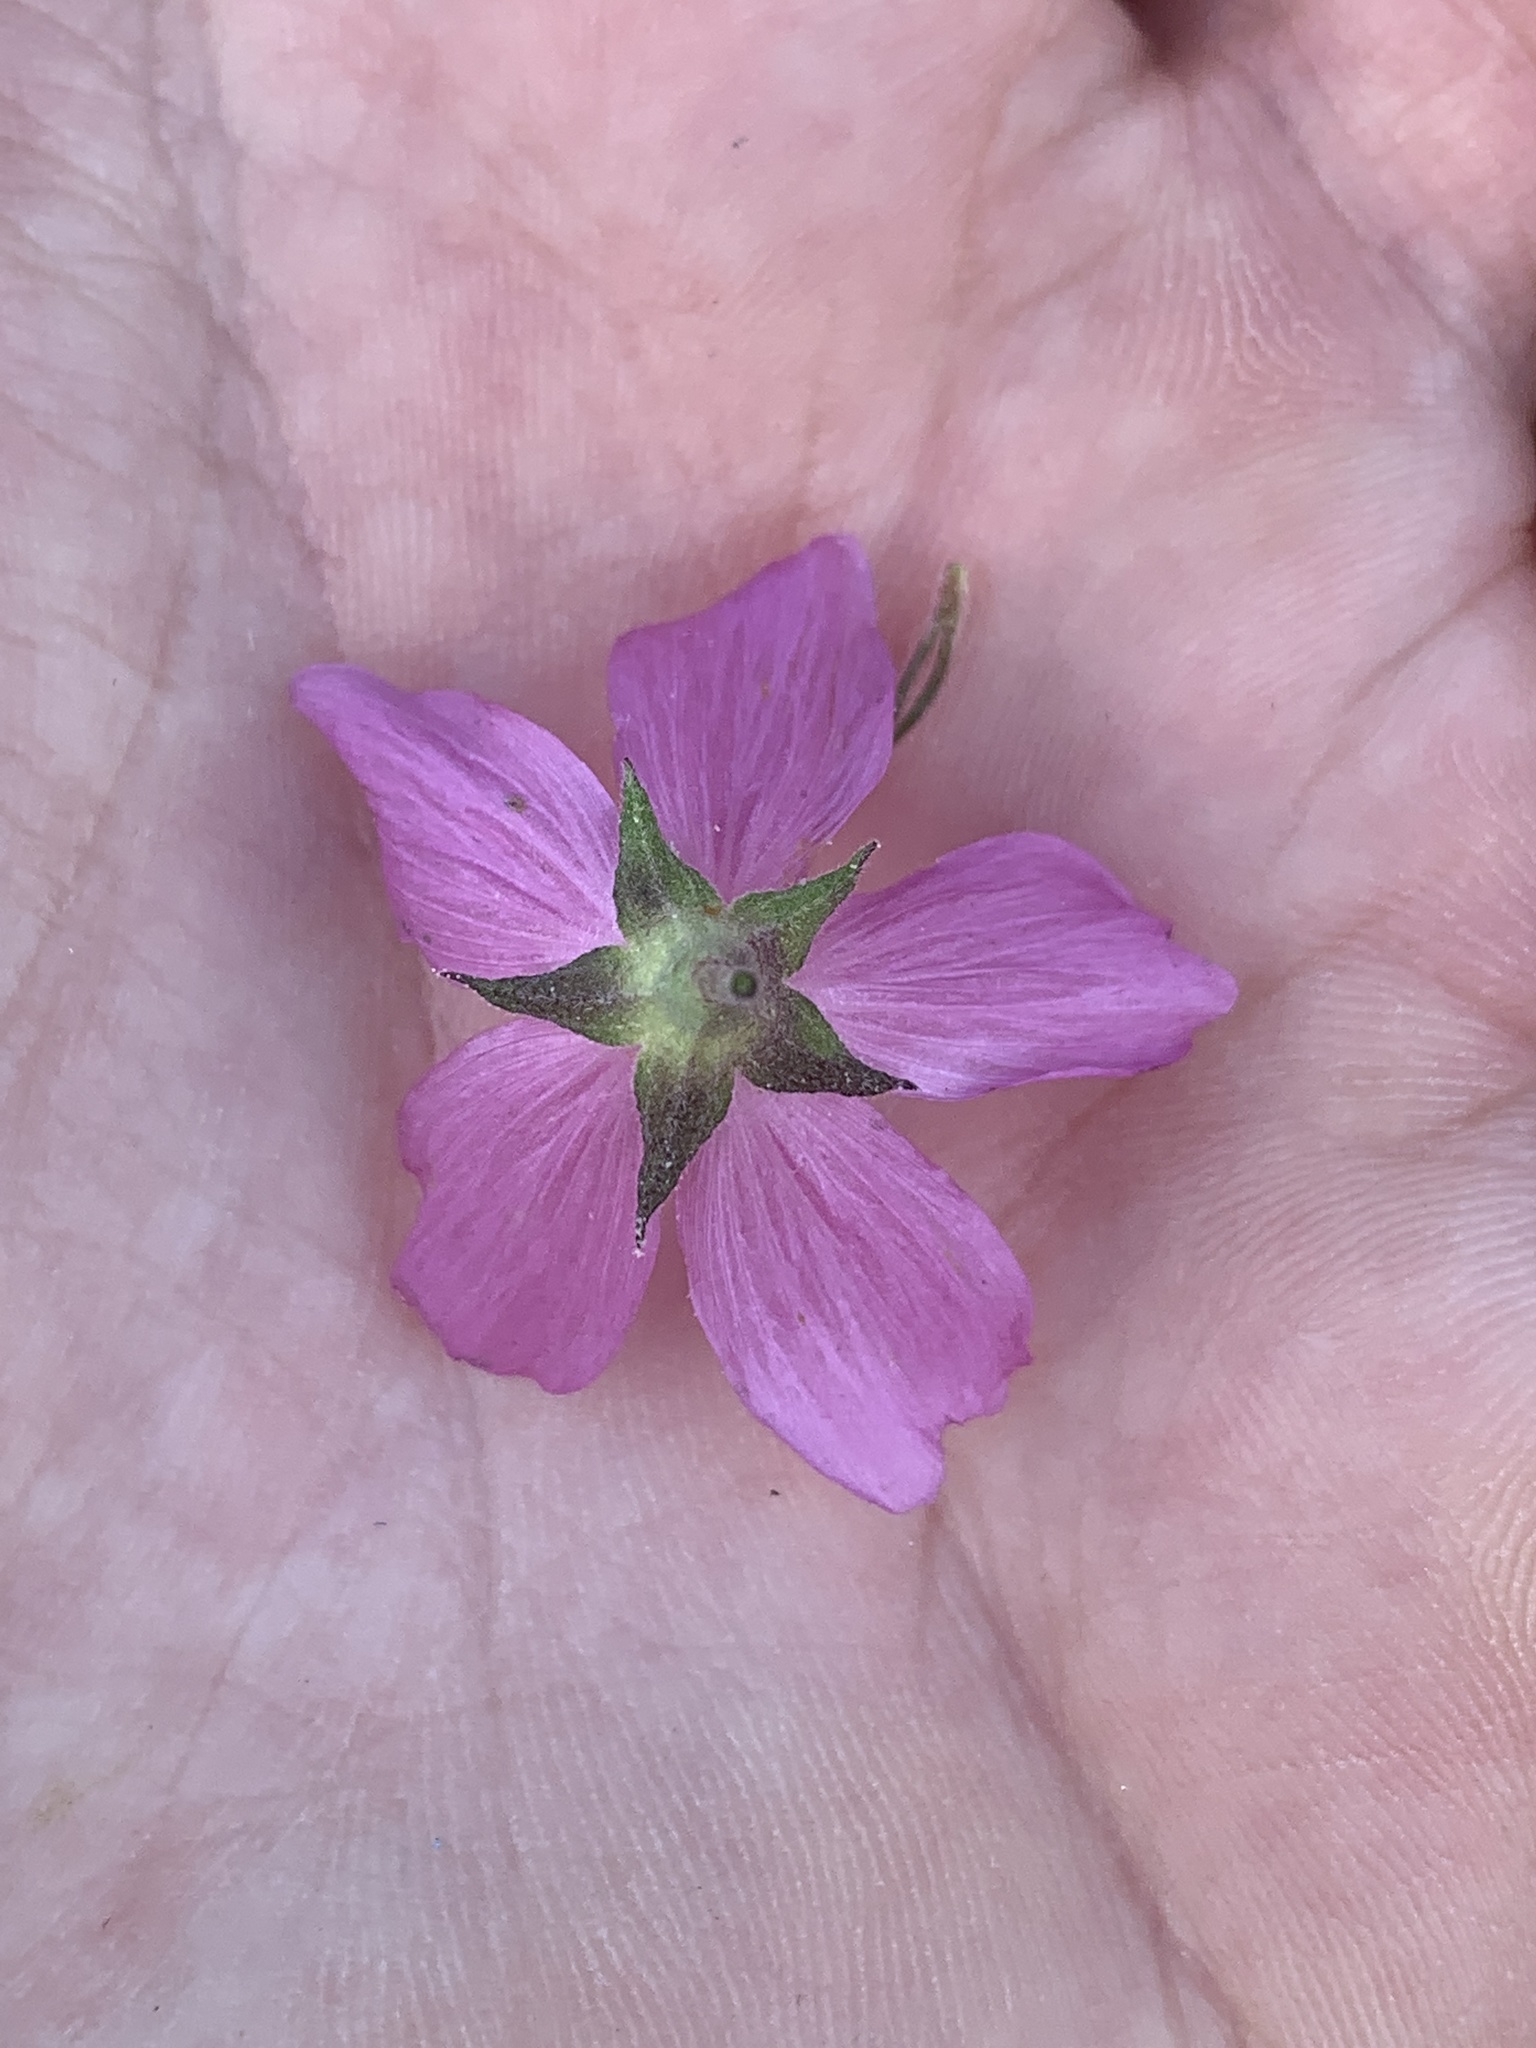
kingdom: Plantae
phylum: Tracheophyta
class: Magnoliopsida
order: Malvales
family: Malvaceae
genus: Sidalcea
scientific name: Sidalcea asprella
